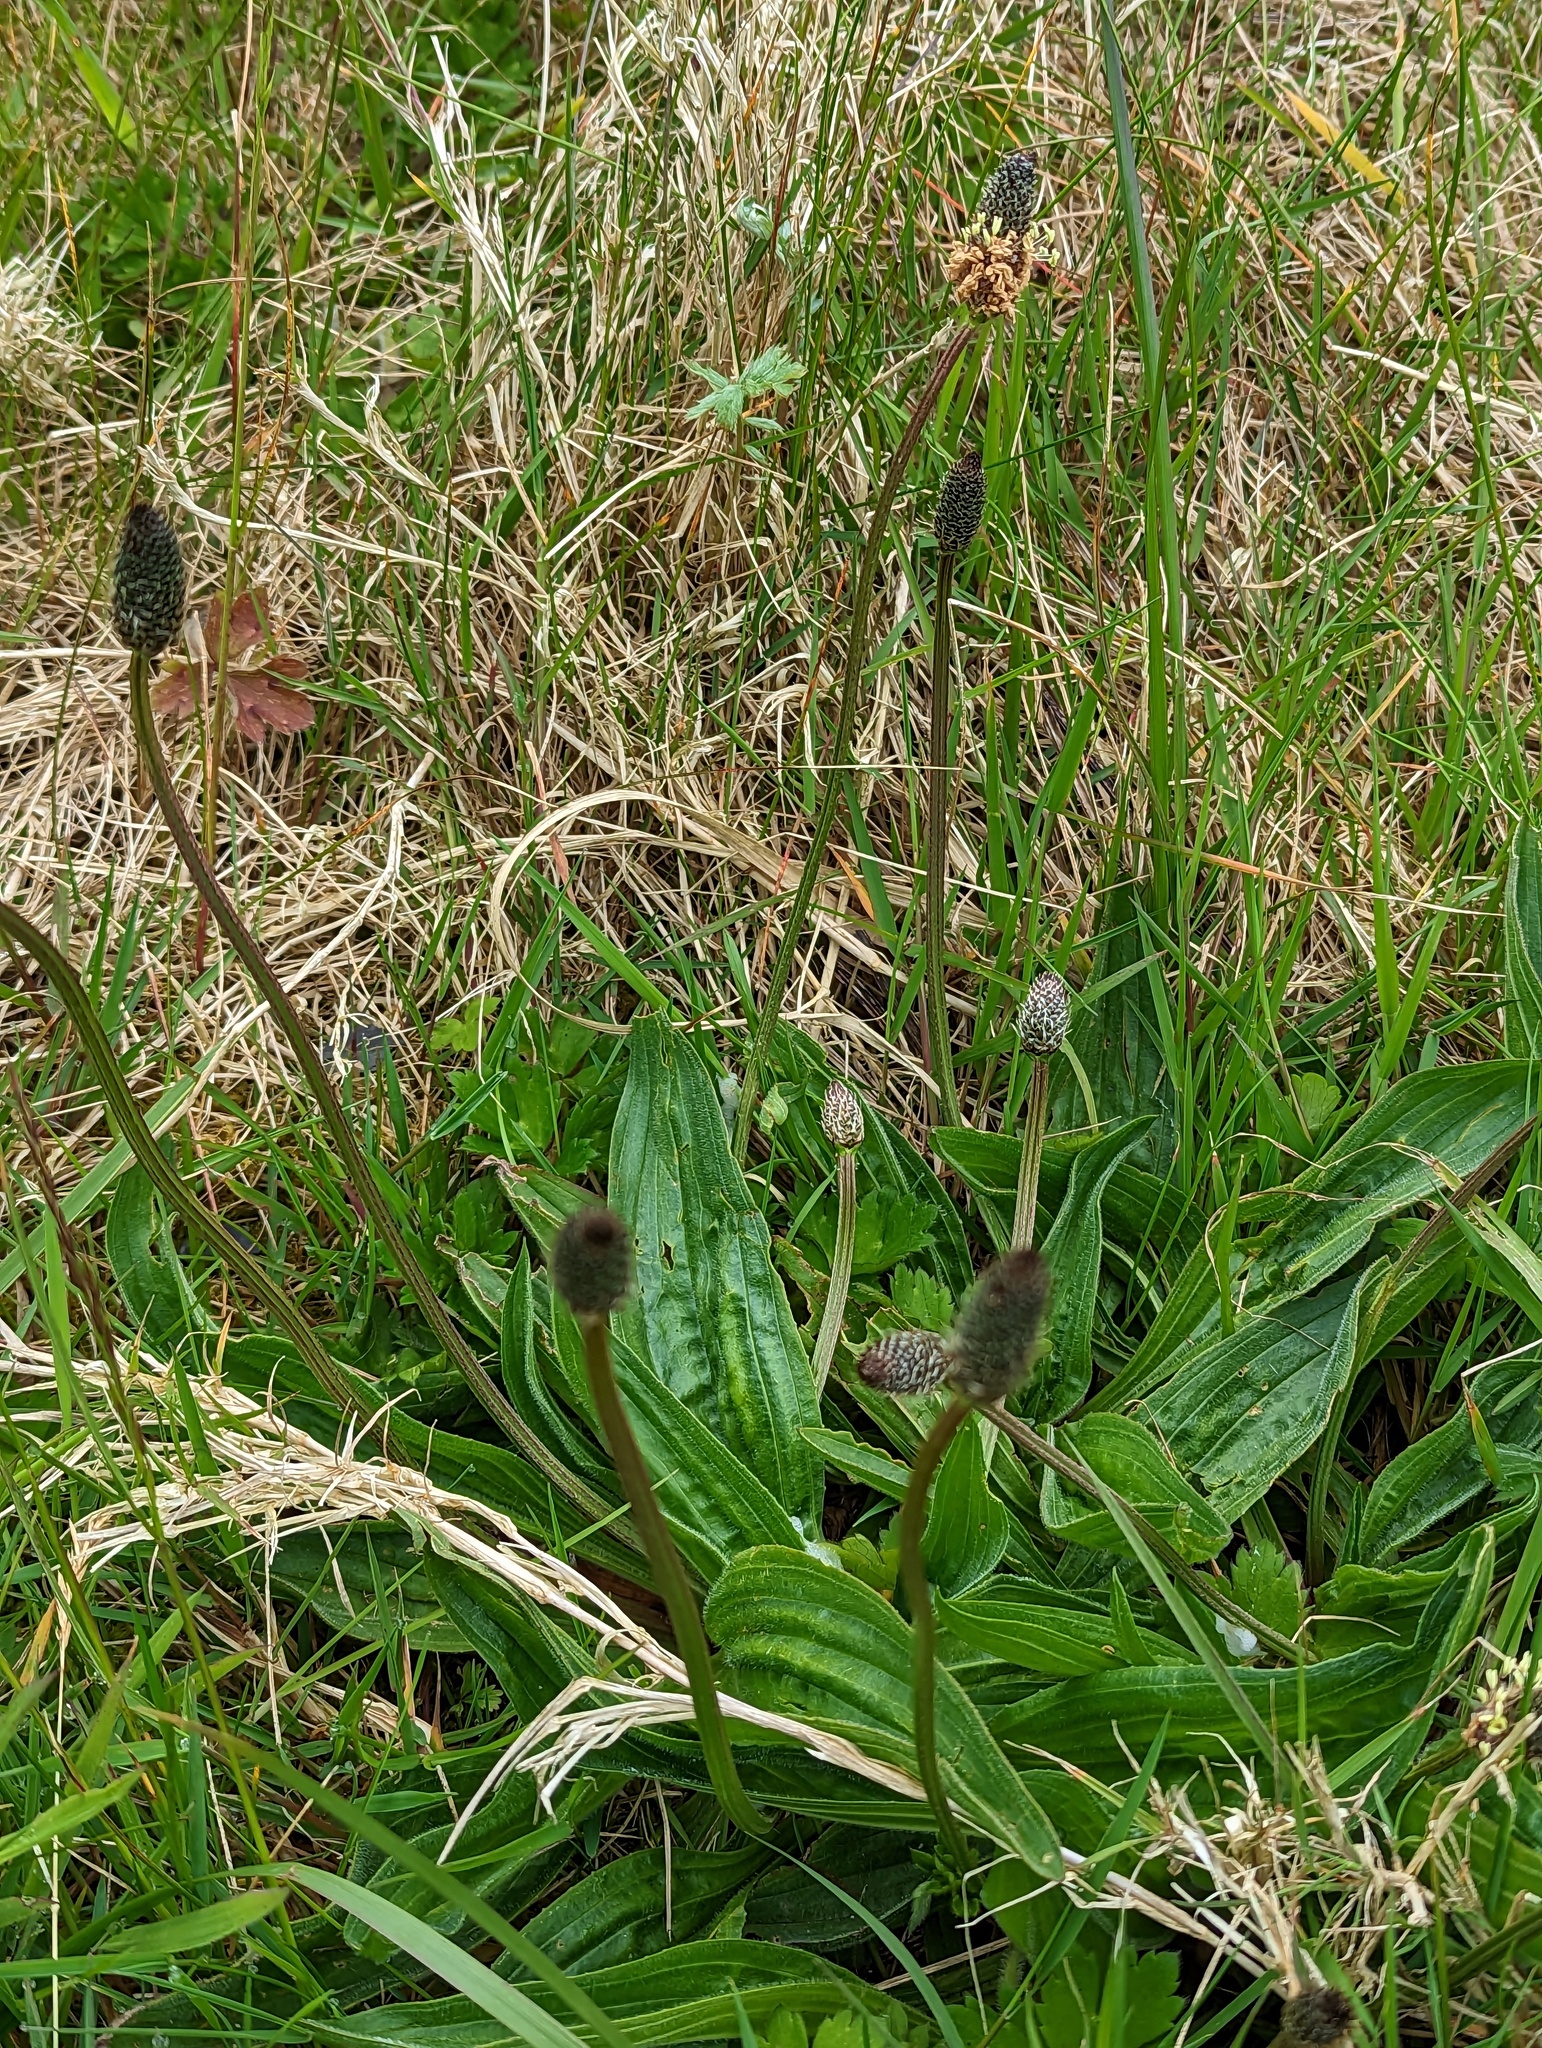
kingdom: Plantae
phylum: Tracheophyta
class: Magnoliopsida
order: Lamiales
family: Plantaginaceae
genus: Plantago
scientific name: Plantago lanceolata
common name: Ribwort plantain
